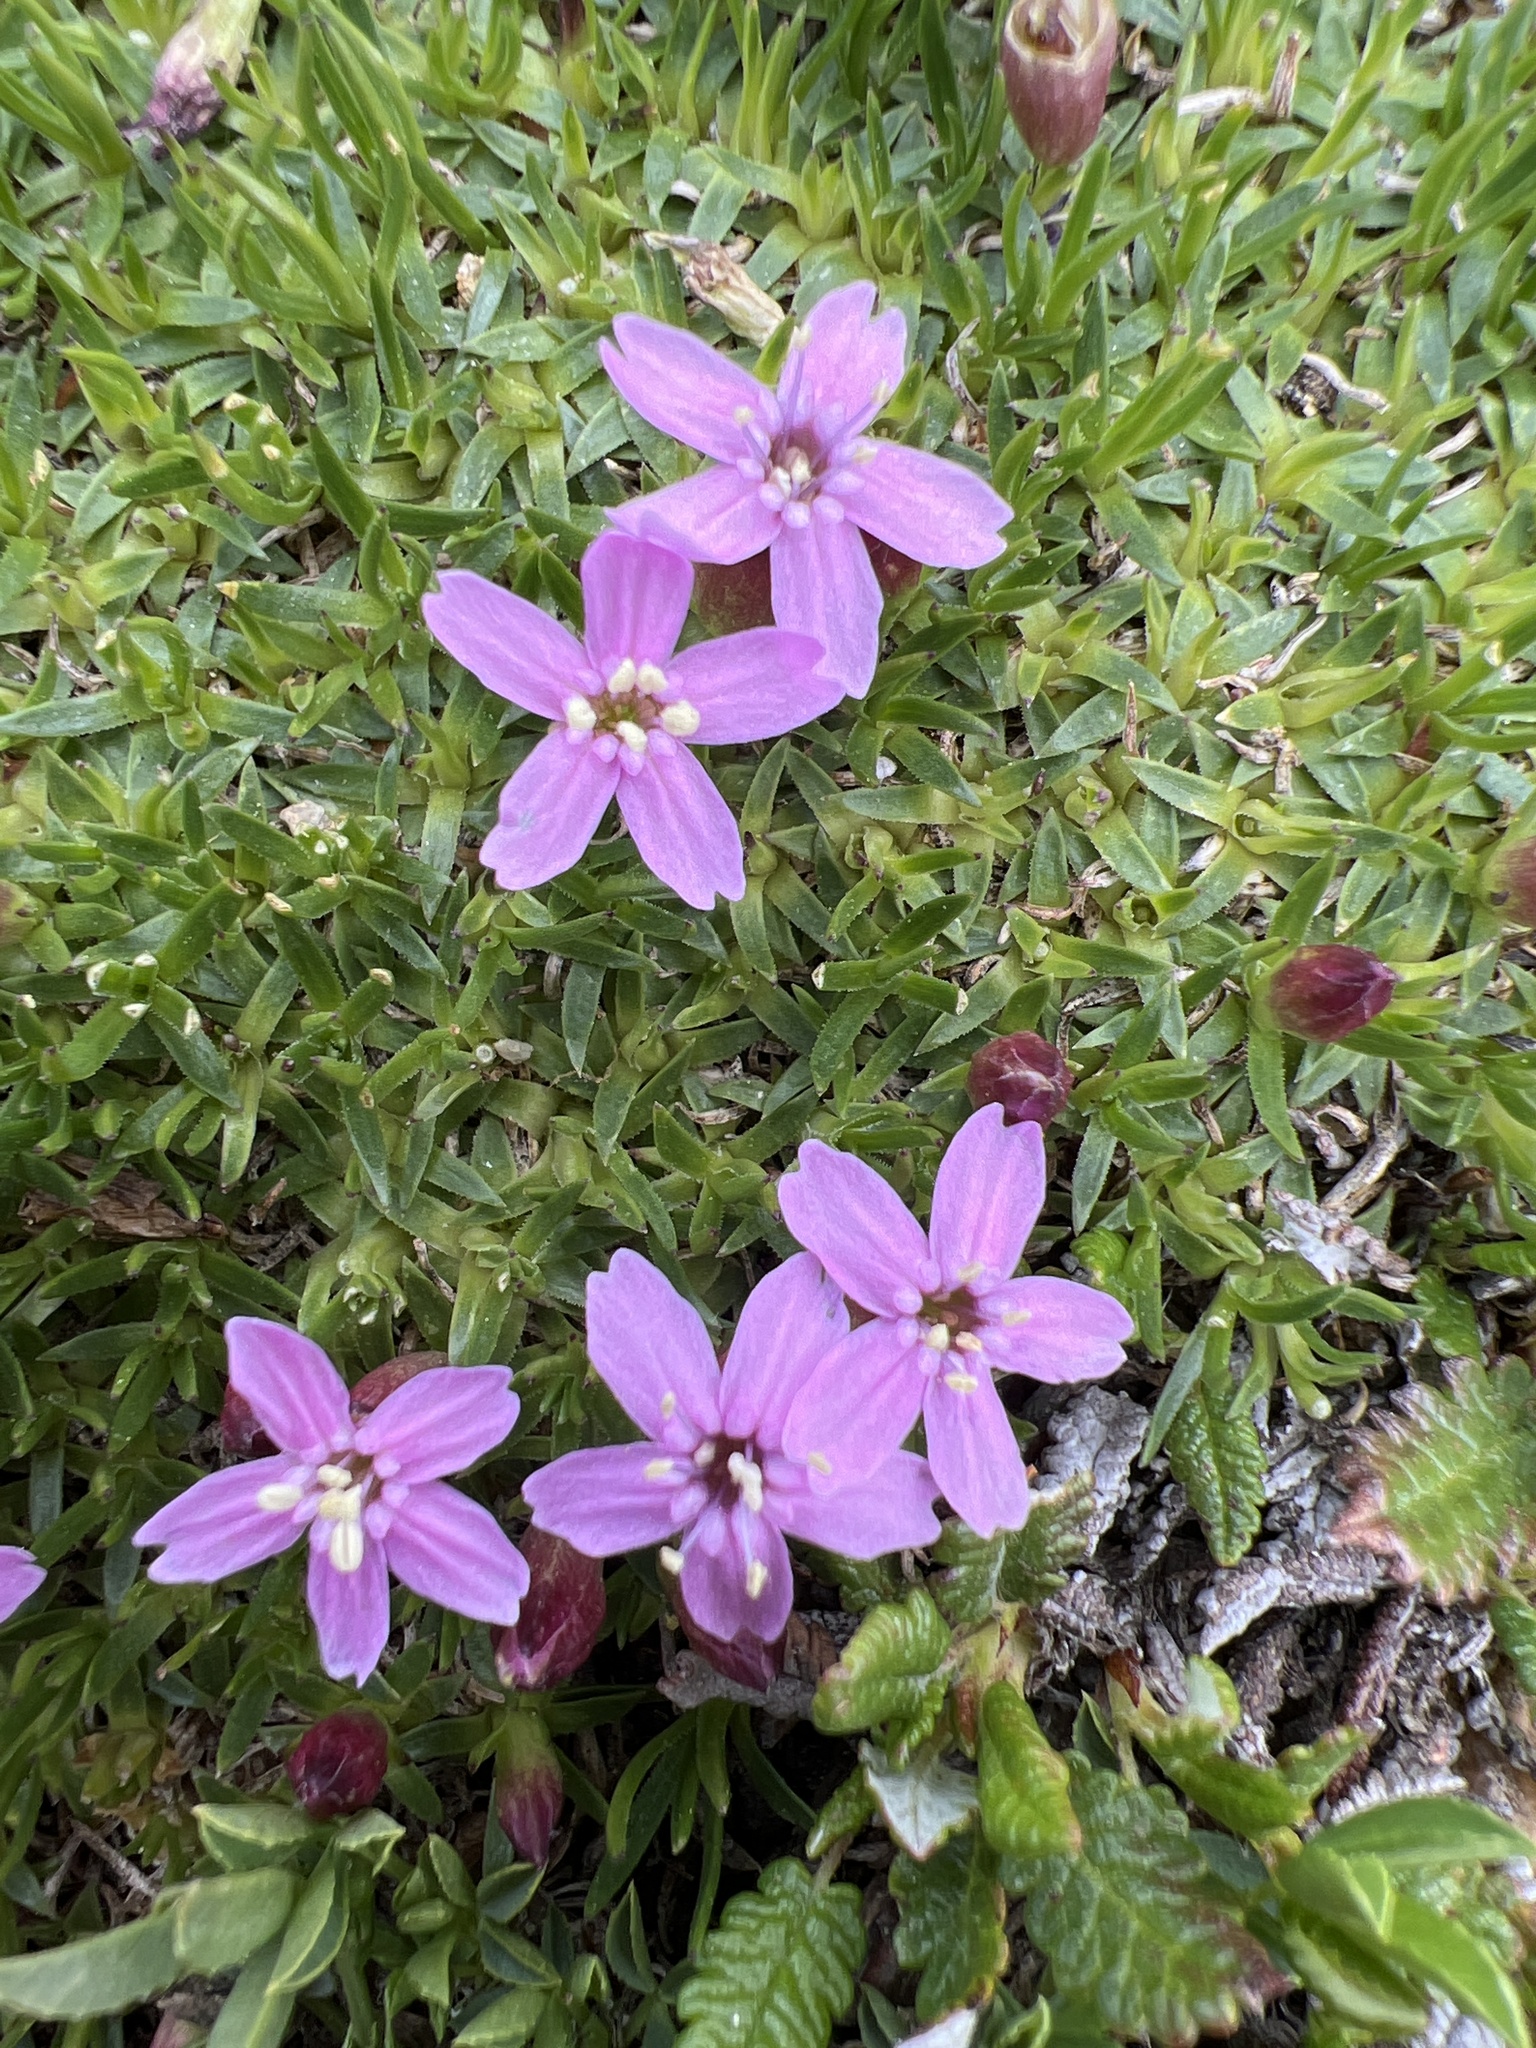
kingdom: Plantae
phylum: Tracheophyta
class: Magnoliopsida
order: Caryophyllales
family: Caryophyllaceae
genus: Silene
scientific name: Silene acaulis
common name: Moss campion
